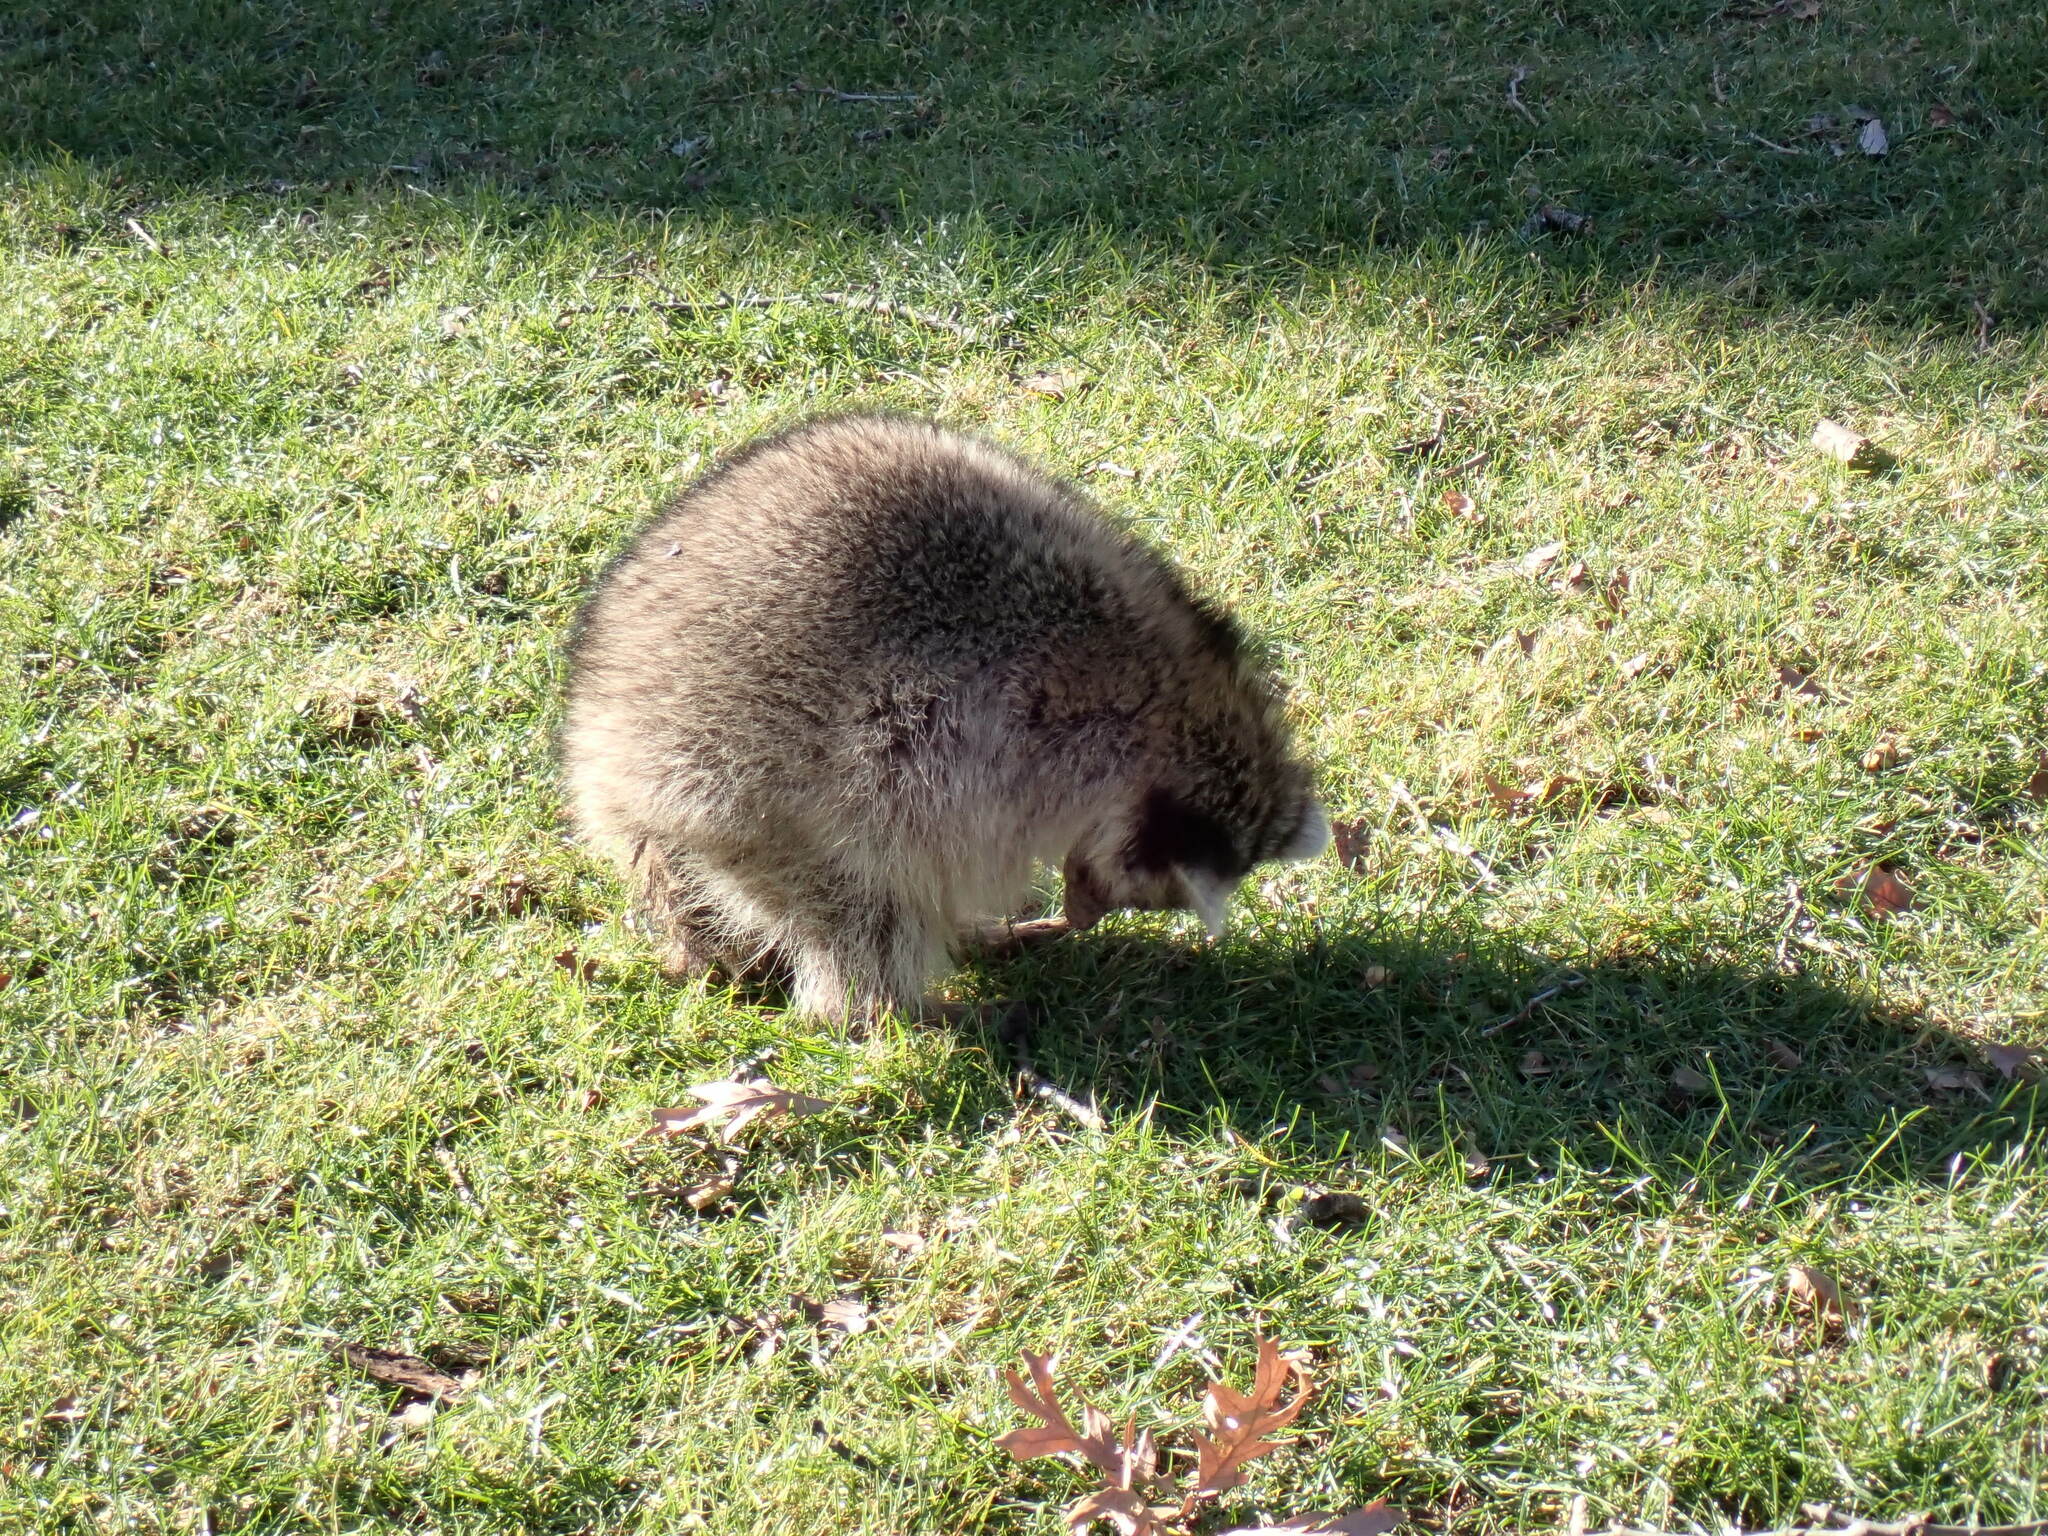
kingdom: Animalia
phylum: Chordata
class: Mammalia
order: Carnivora
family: Procyonidae
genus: Procyon
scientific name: Procyon lotor
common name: Raccoon
